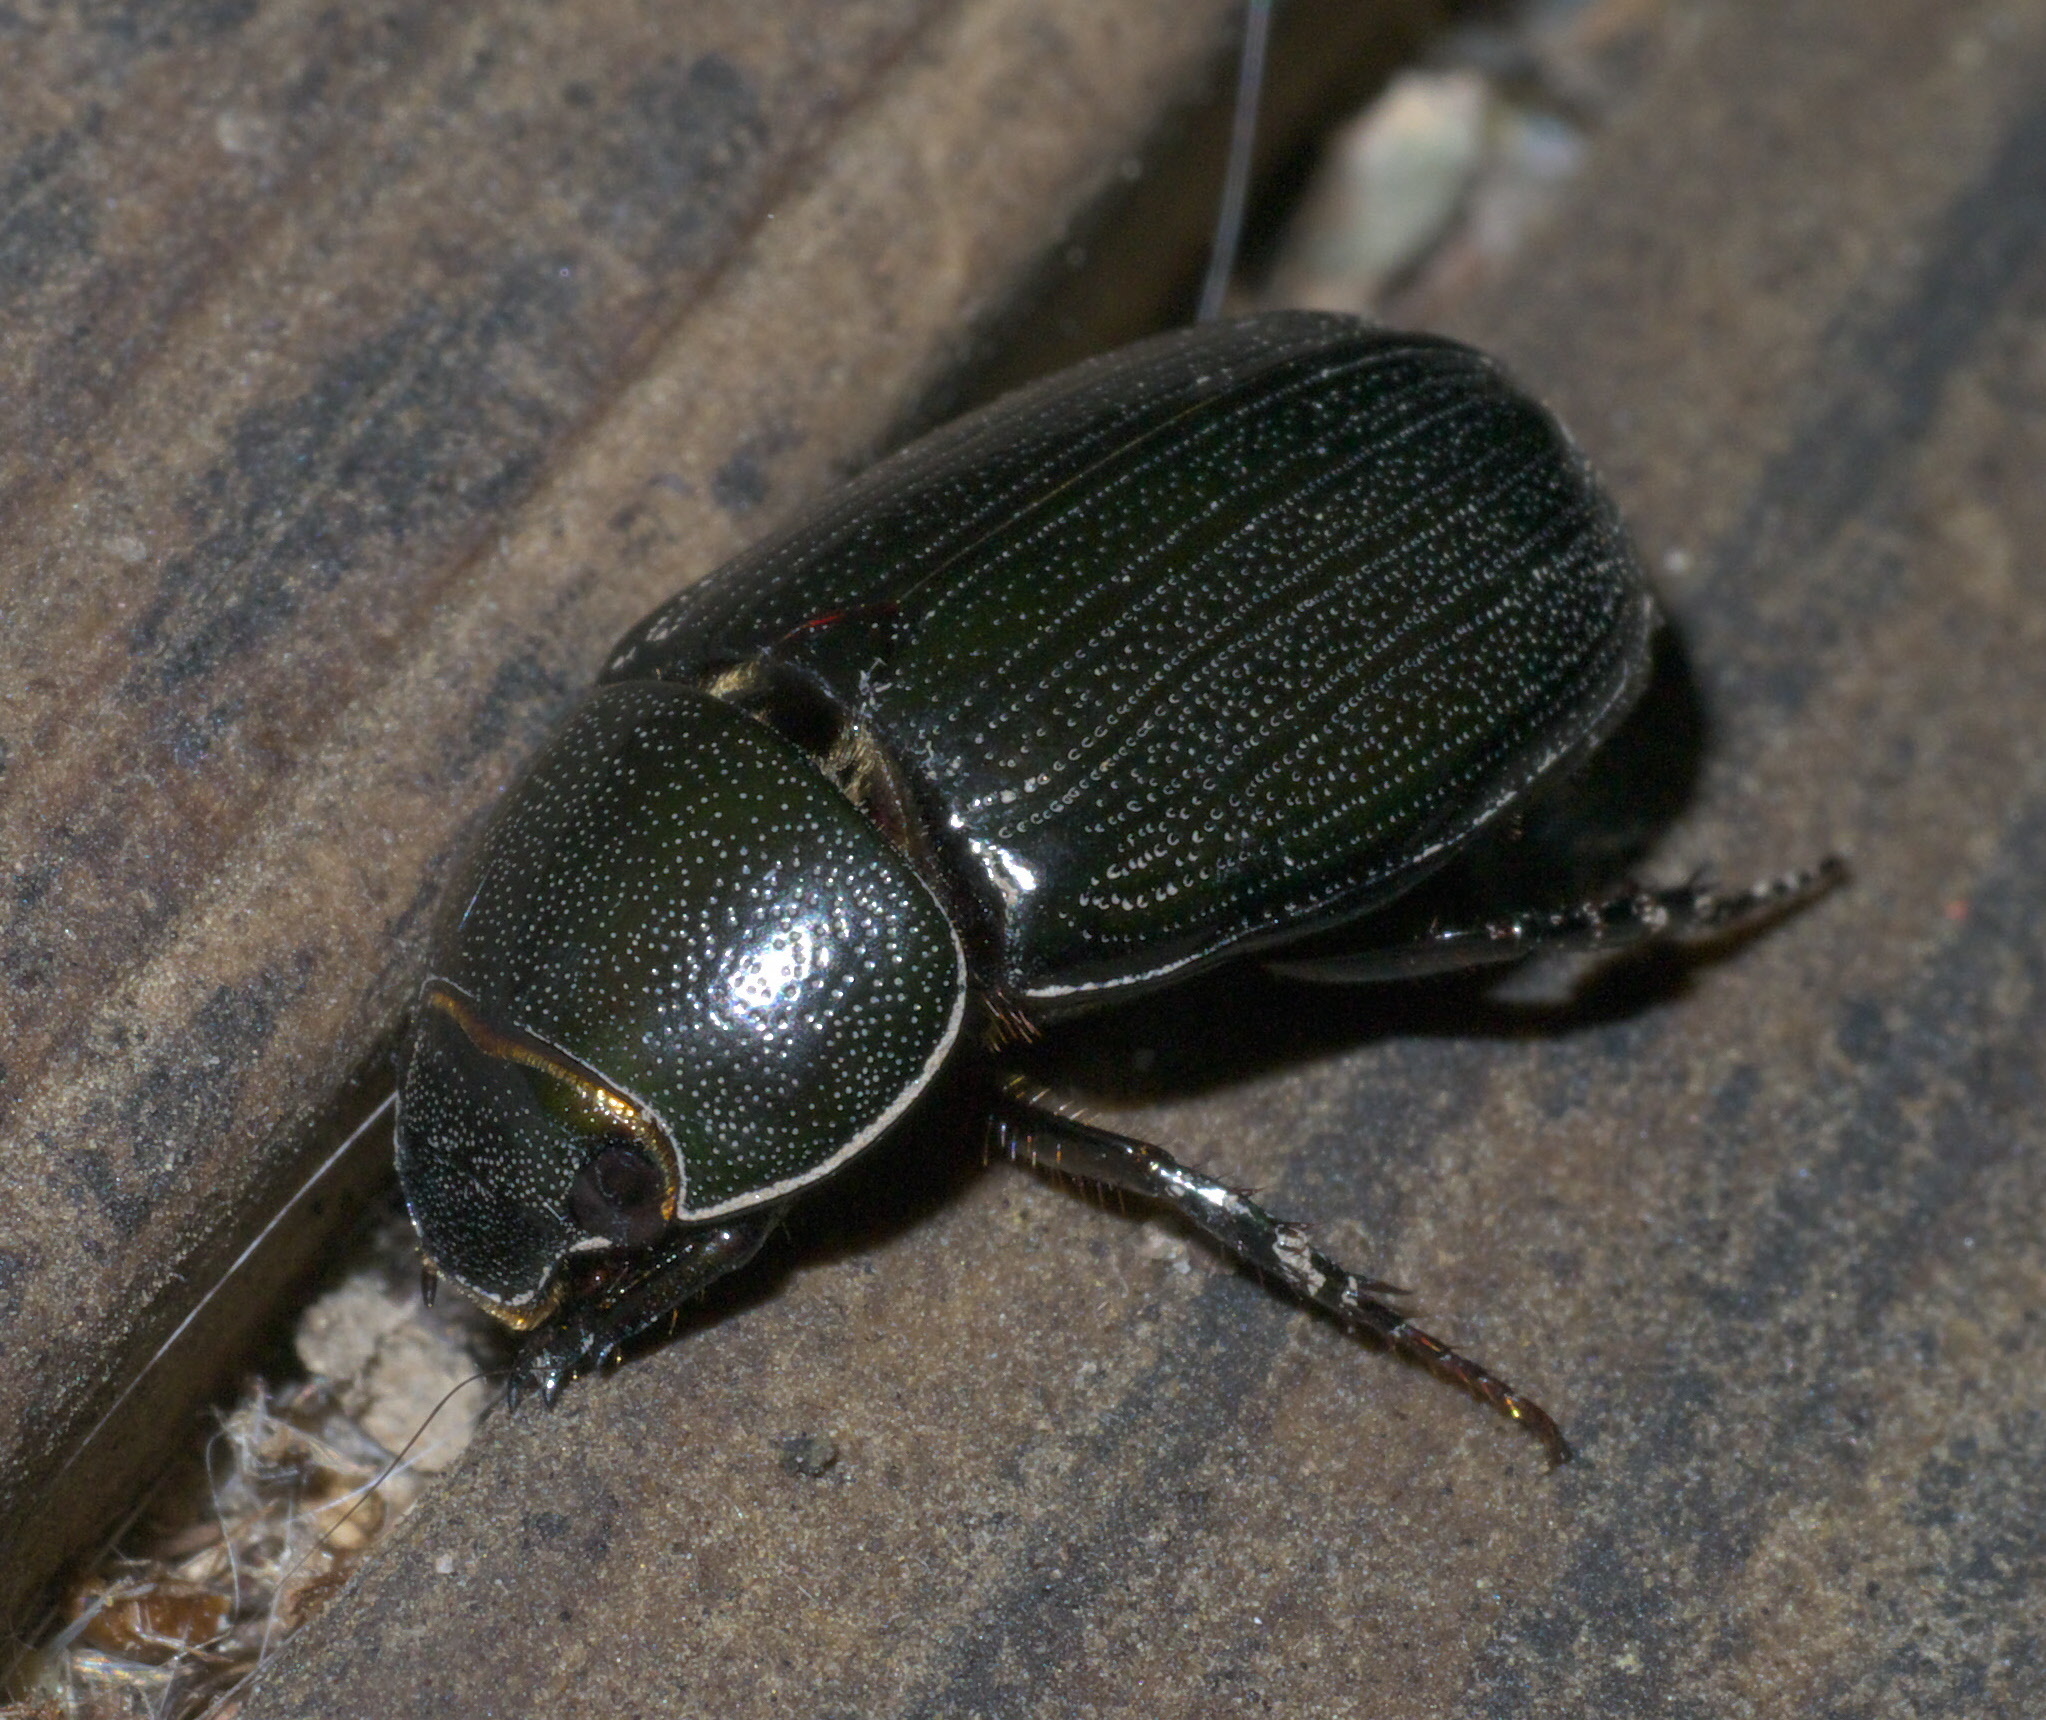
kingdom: Animalia
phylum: Arthropoda
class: Insecta
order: Coleoptera
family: Scarabaeidae
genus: Dyscinetus
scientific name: Dyscinetus morator
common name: Rice beetle
